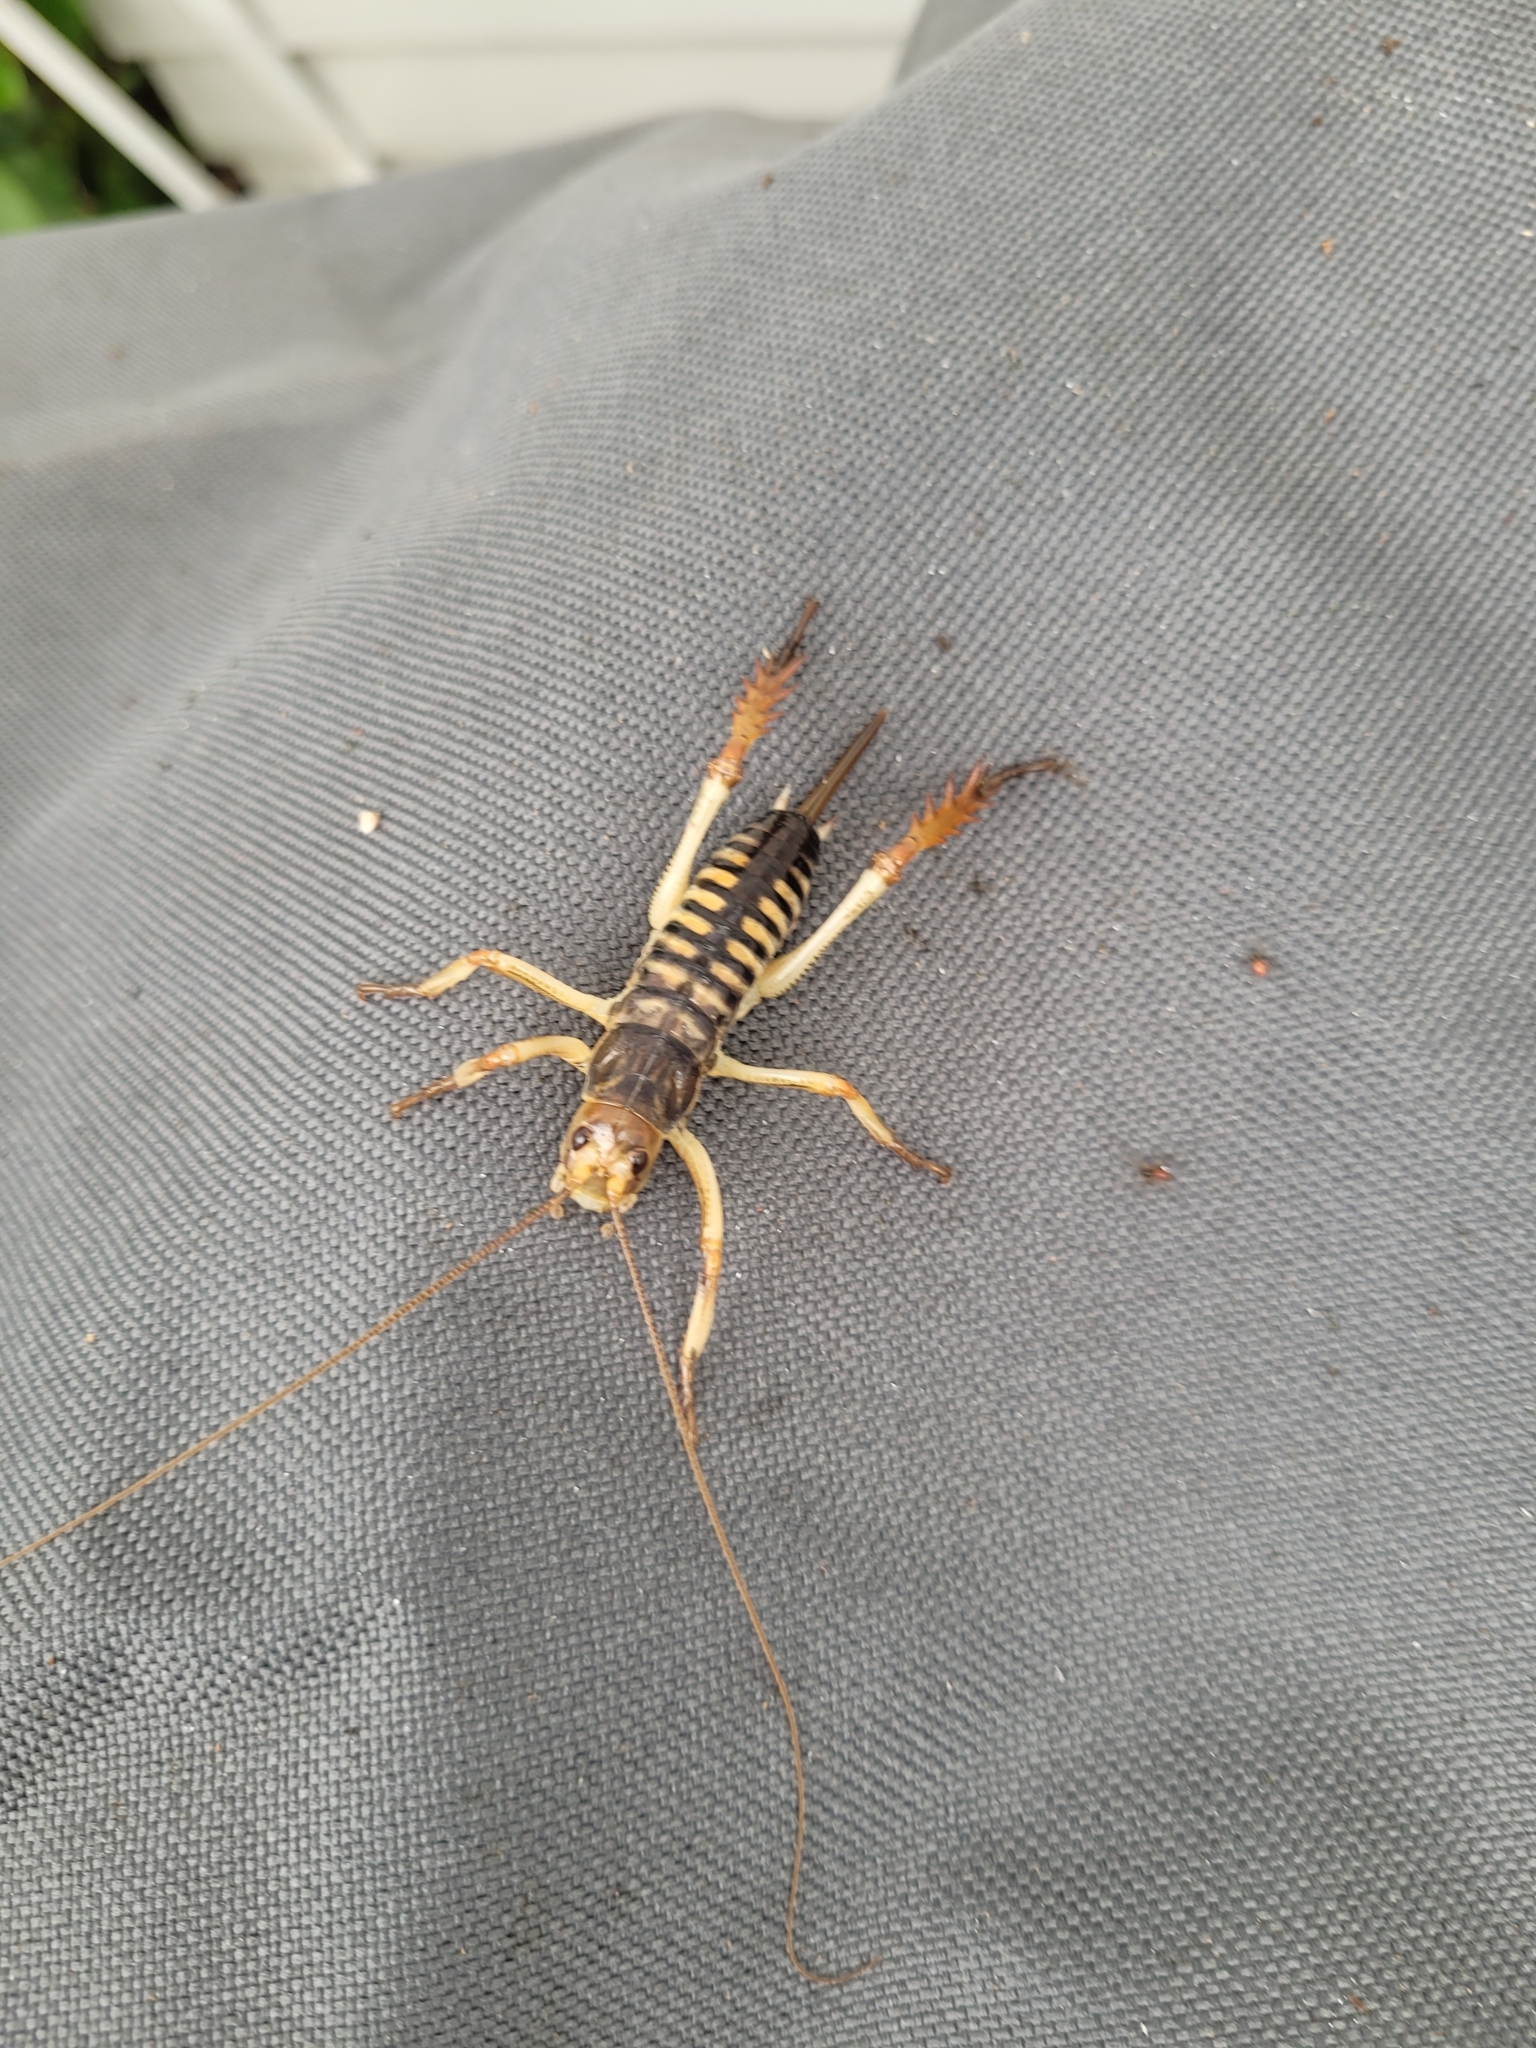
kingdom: Animalia
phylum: Arthropoda
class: Insecta
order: Orthoptera
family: Anostostomatidae
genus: Hemideina
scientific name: Hemideina crassidens
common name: Wellington tree weta
